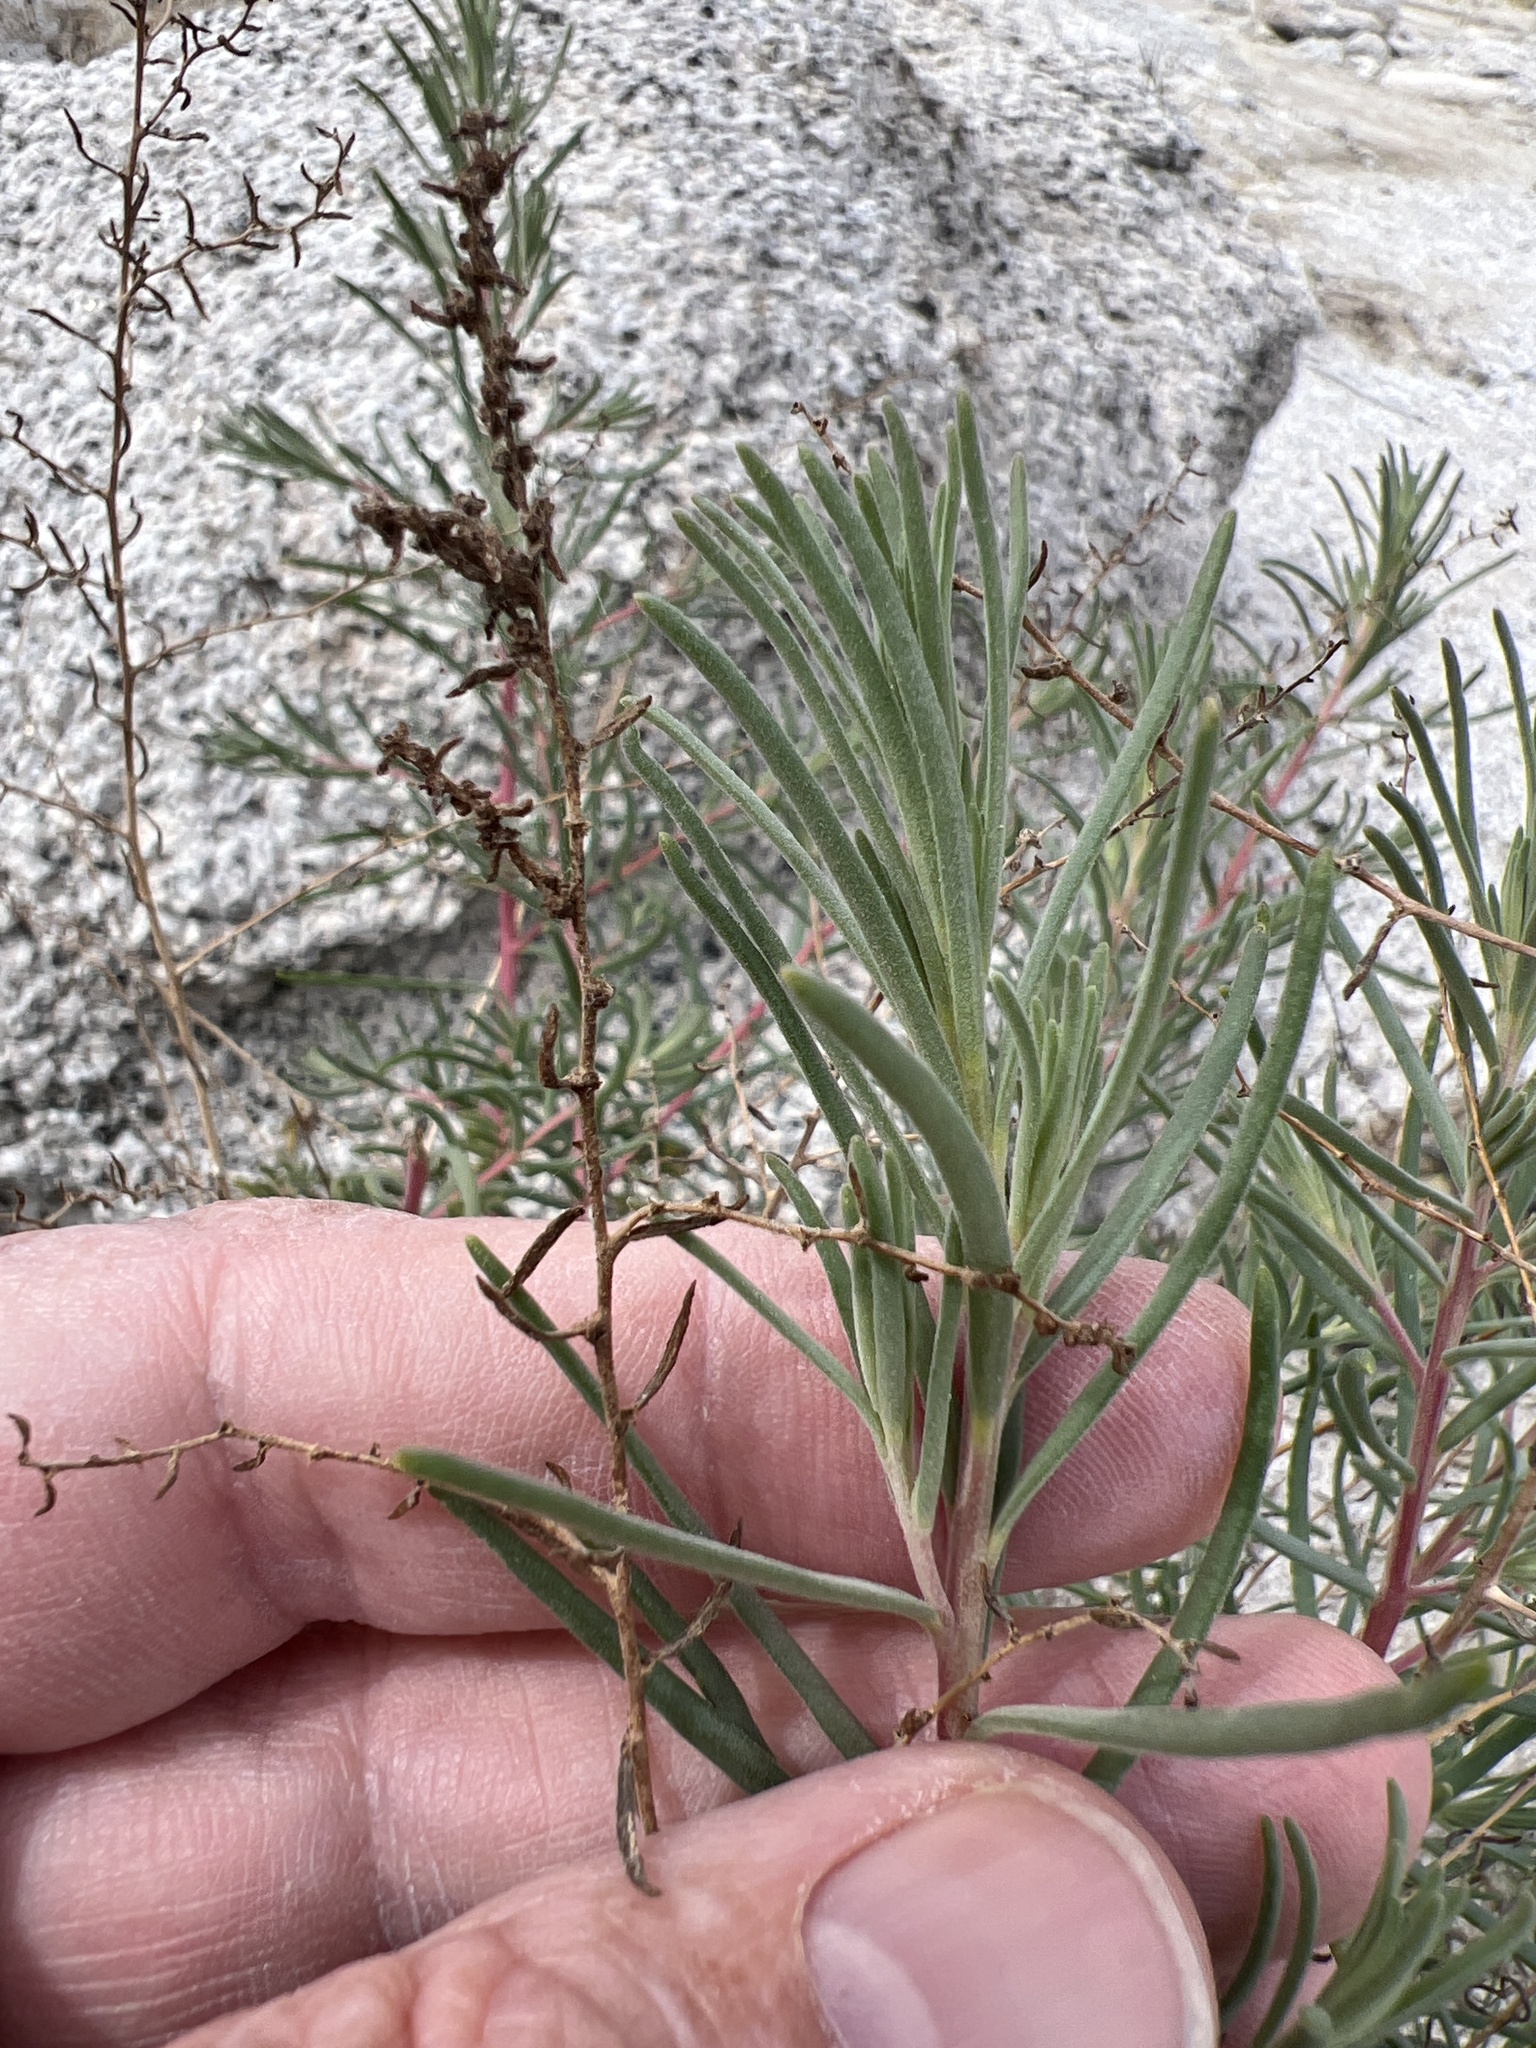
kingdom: Plantae
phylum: Tracheophyta
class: Magnoliopsida
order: Caryophyllales
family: Amaranthaceae
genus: Suaeda
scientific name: Suaeda nigra
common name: Bush seepweed
